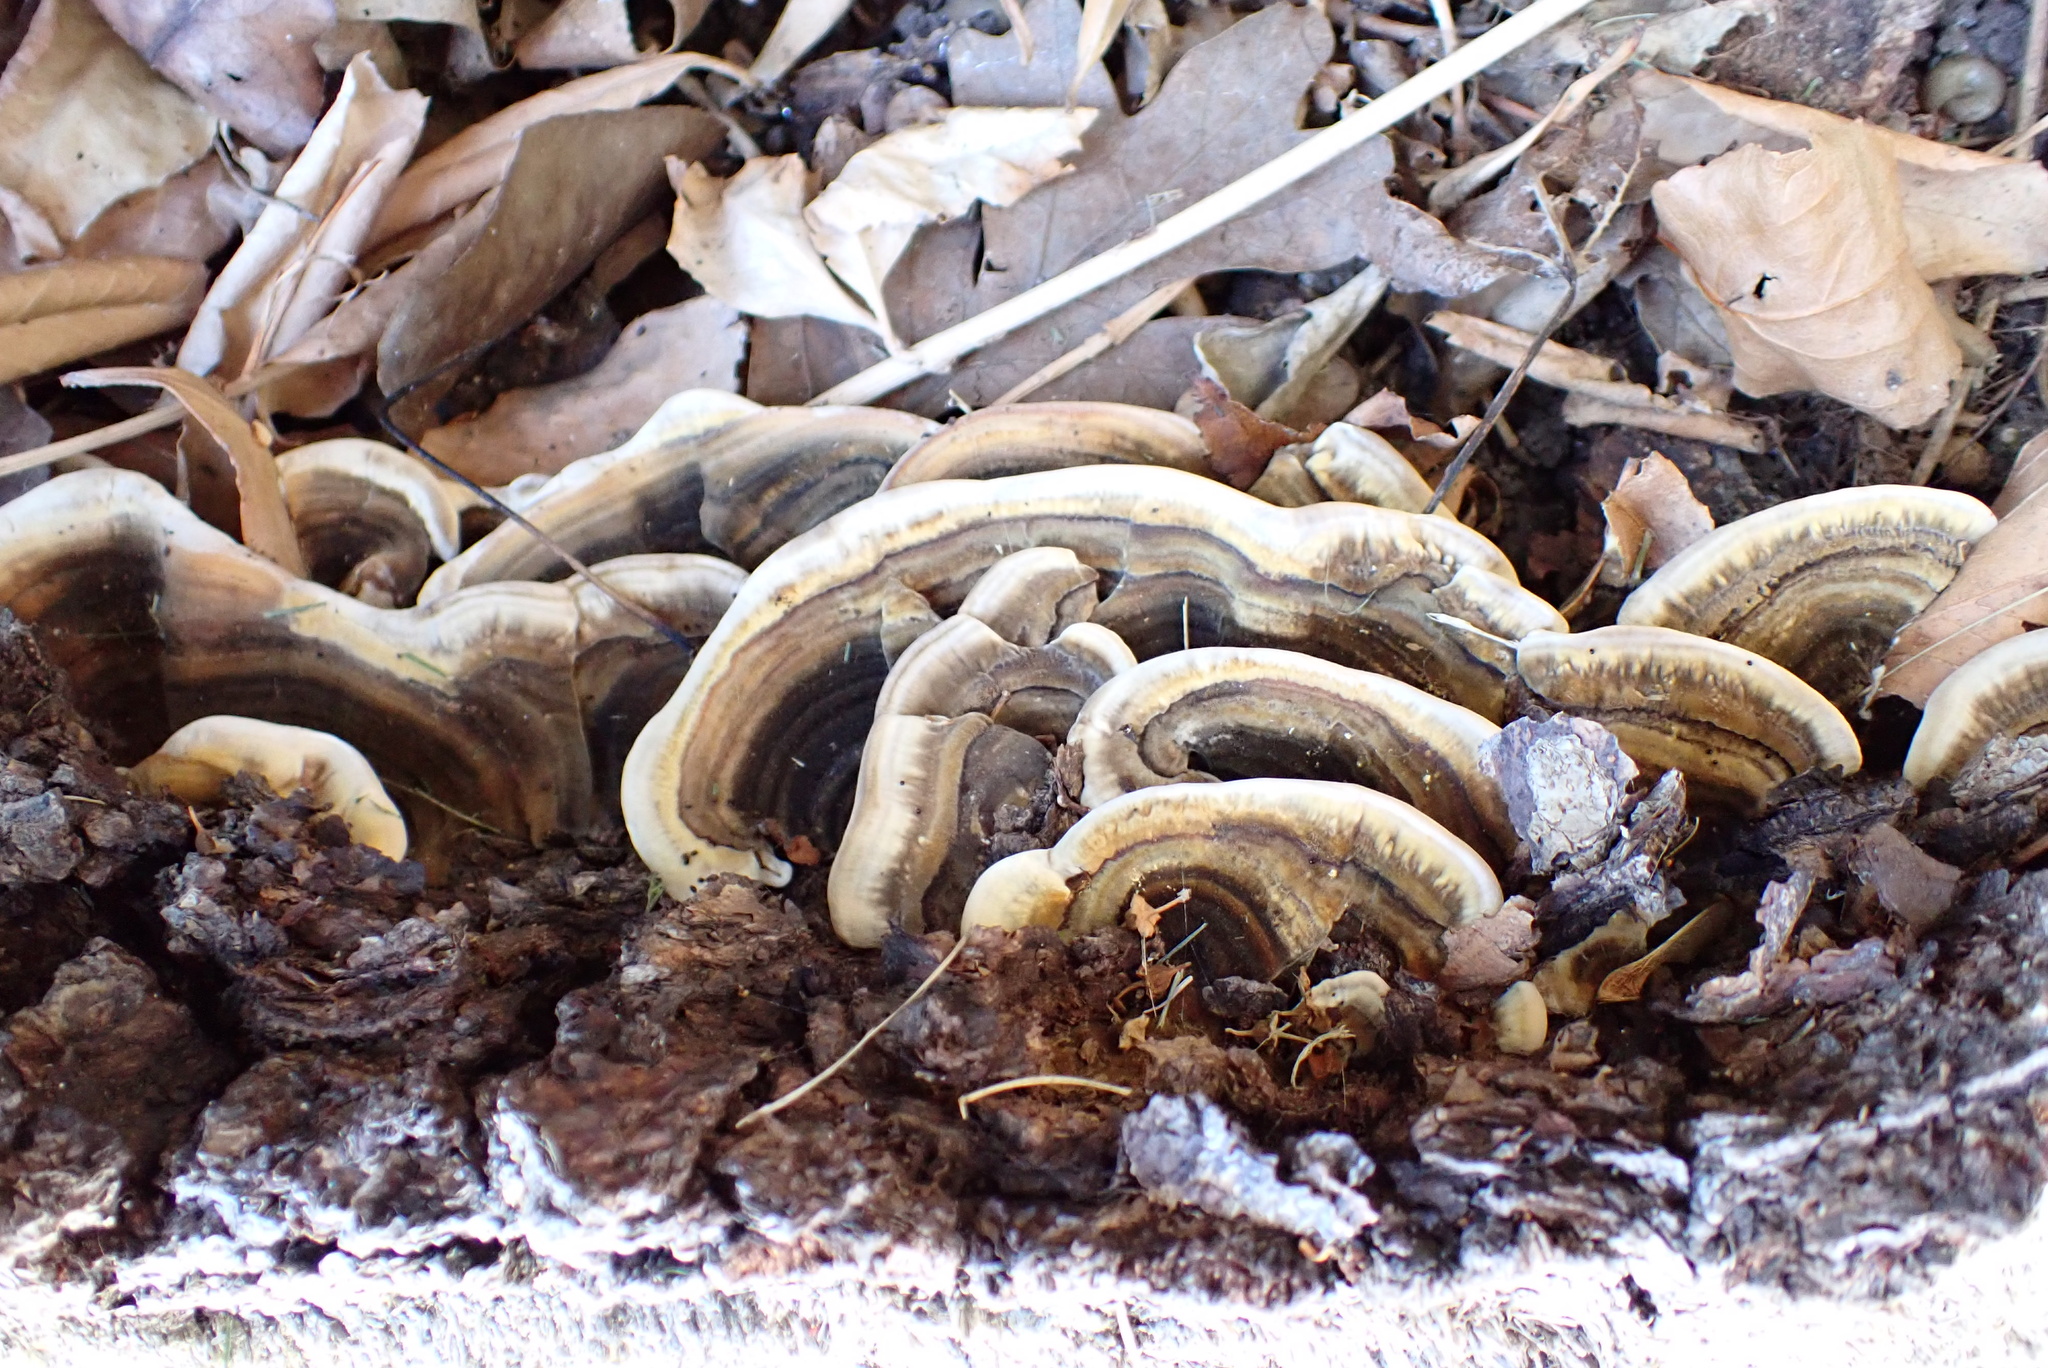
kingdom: Fungi
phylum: Basidiomycota
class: Agaricomycetes
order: Polyporales
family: Polyporaceae
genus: Trametes
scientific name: Trametes versicolor
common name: Turkeytail
